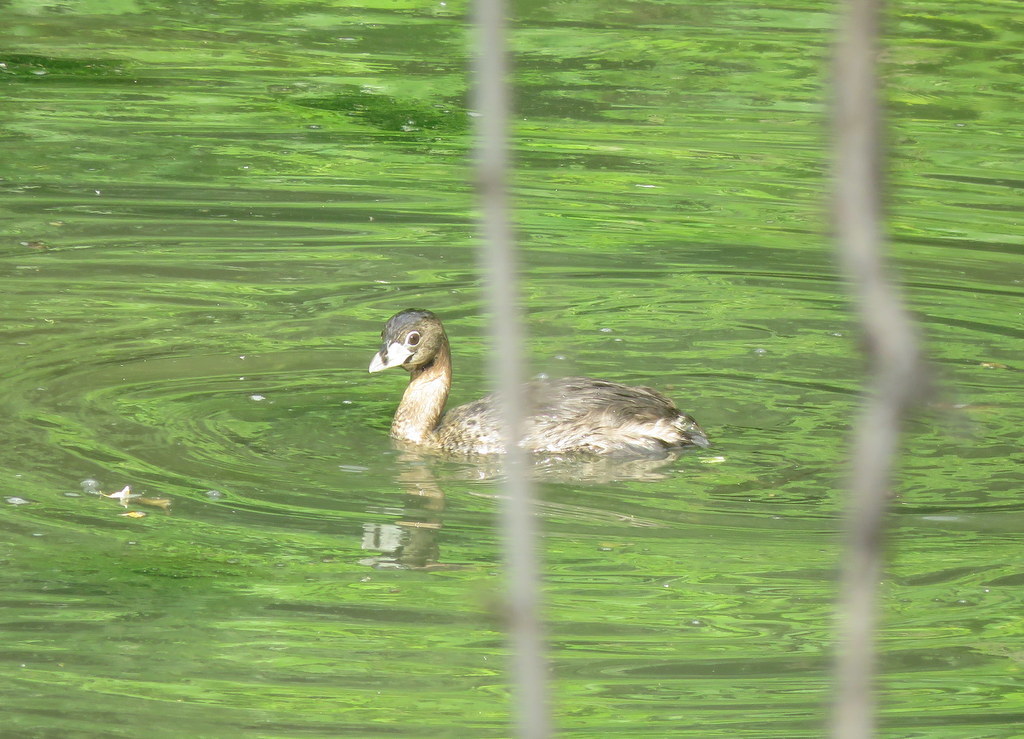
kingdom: Animalia
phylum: Chordata
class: Aves
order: Podicipediformes
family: Podicipedidae
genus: Podilymbus
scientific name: Podilymbus podiceps
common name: Pied-billed grebe
